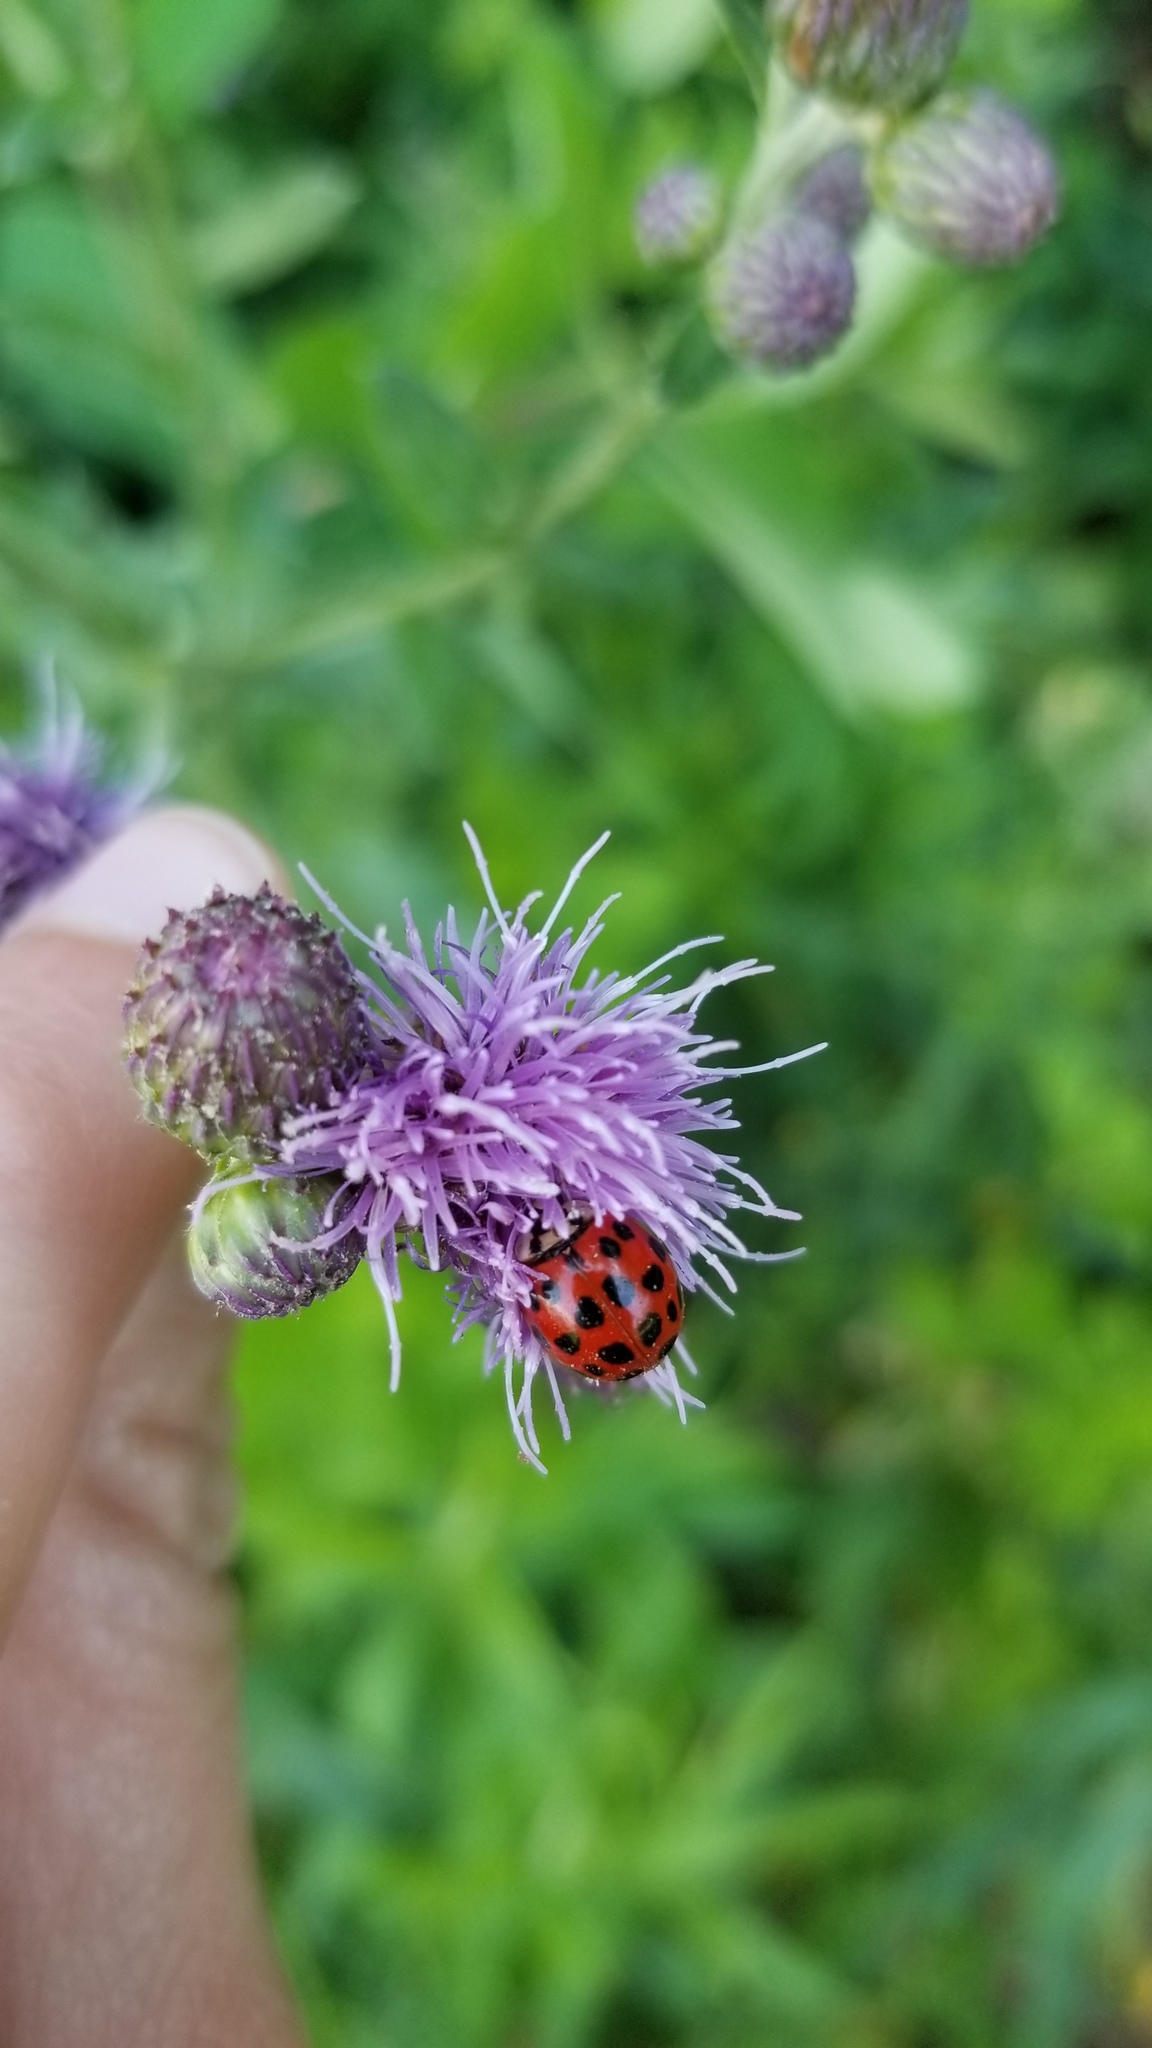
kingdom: Animalia
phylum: Arthropoda
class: Insecta
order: Coleoptera
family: Coccinellidae
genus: Harmonia
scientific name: Harmonia axyridis
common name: Harlequin ladybird
